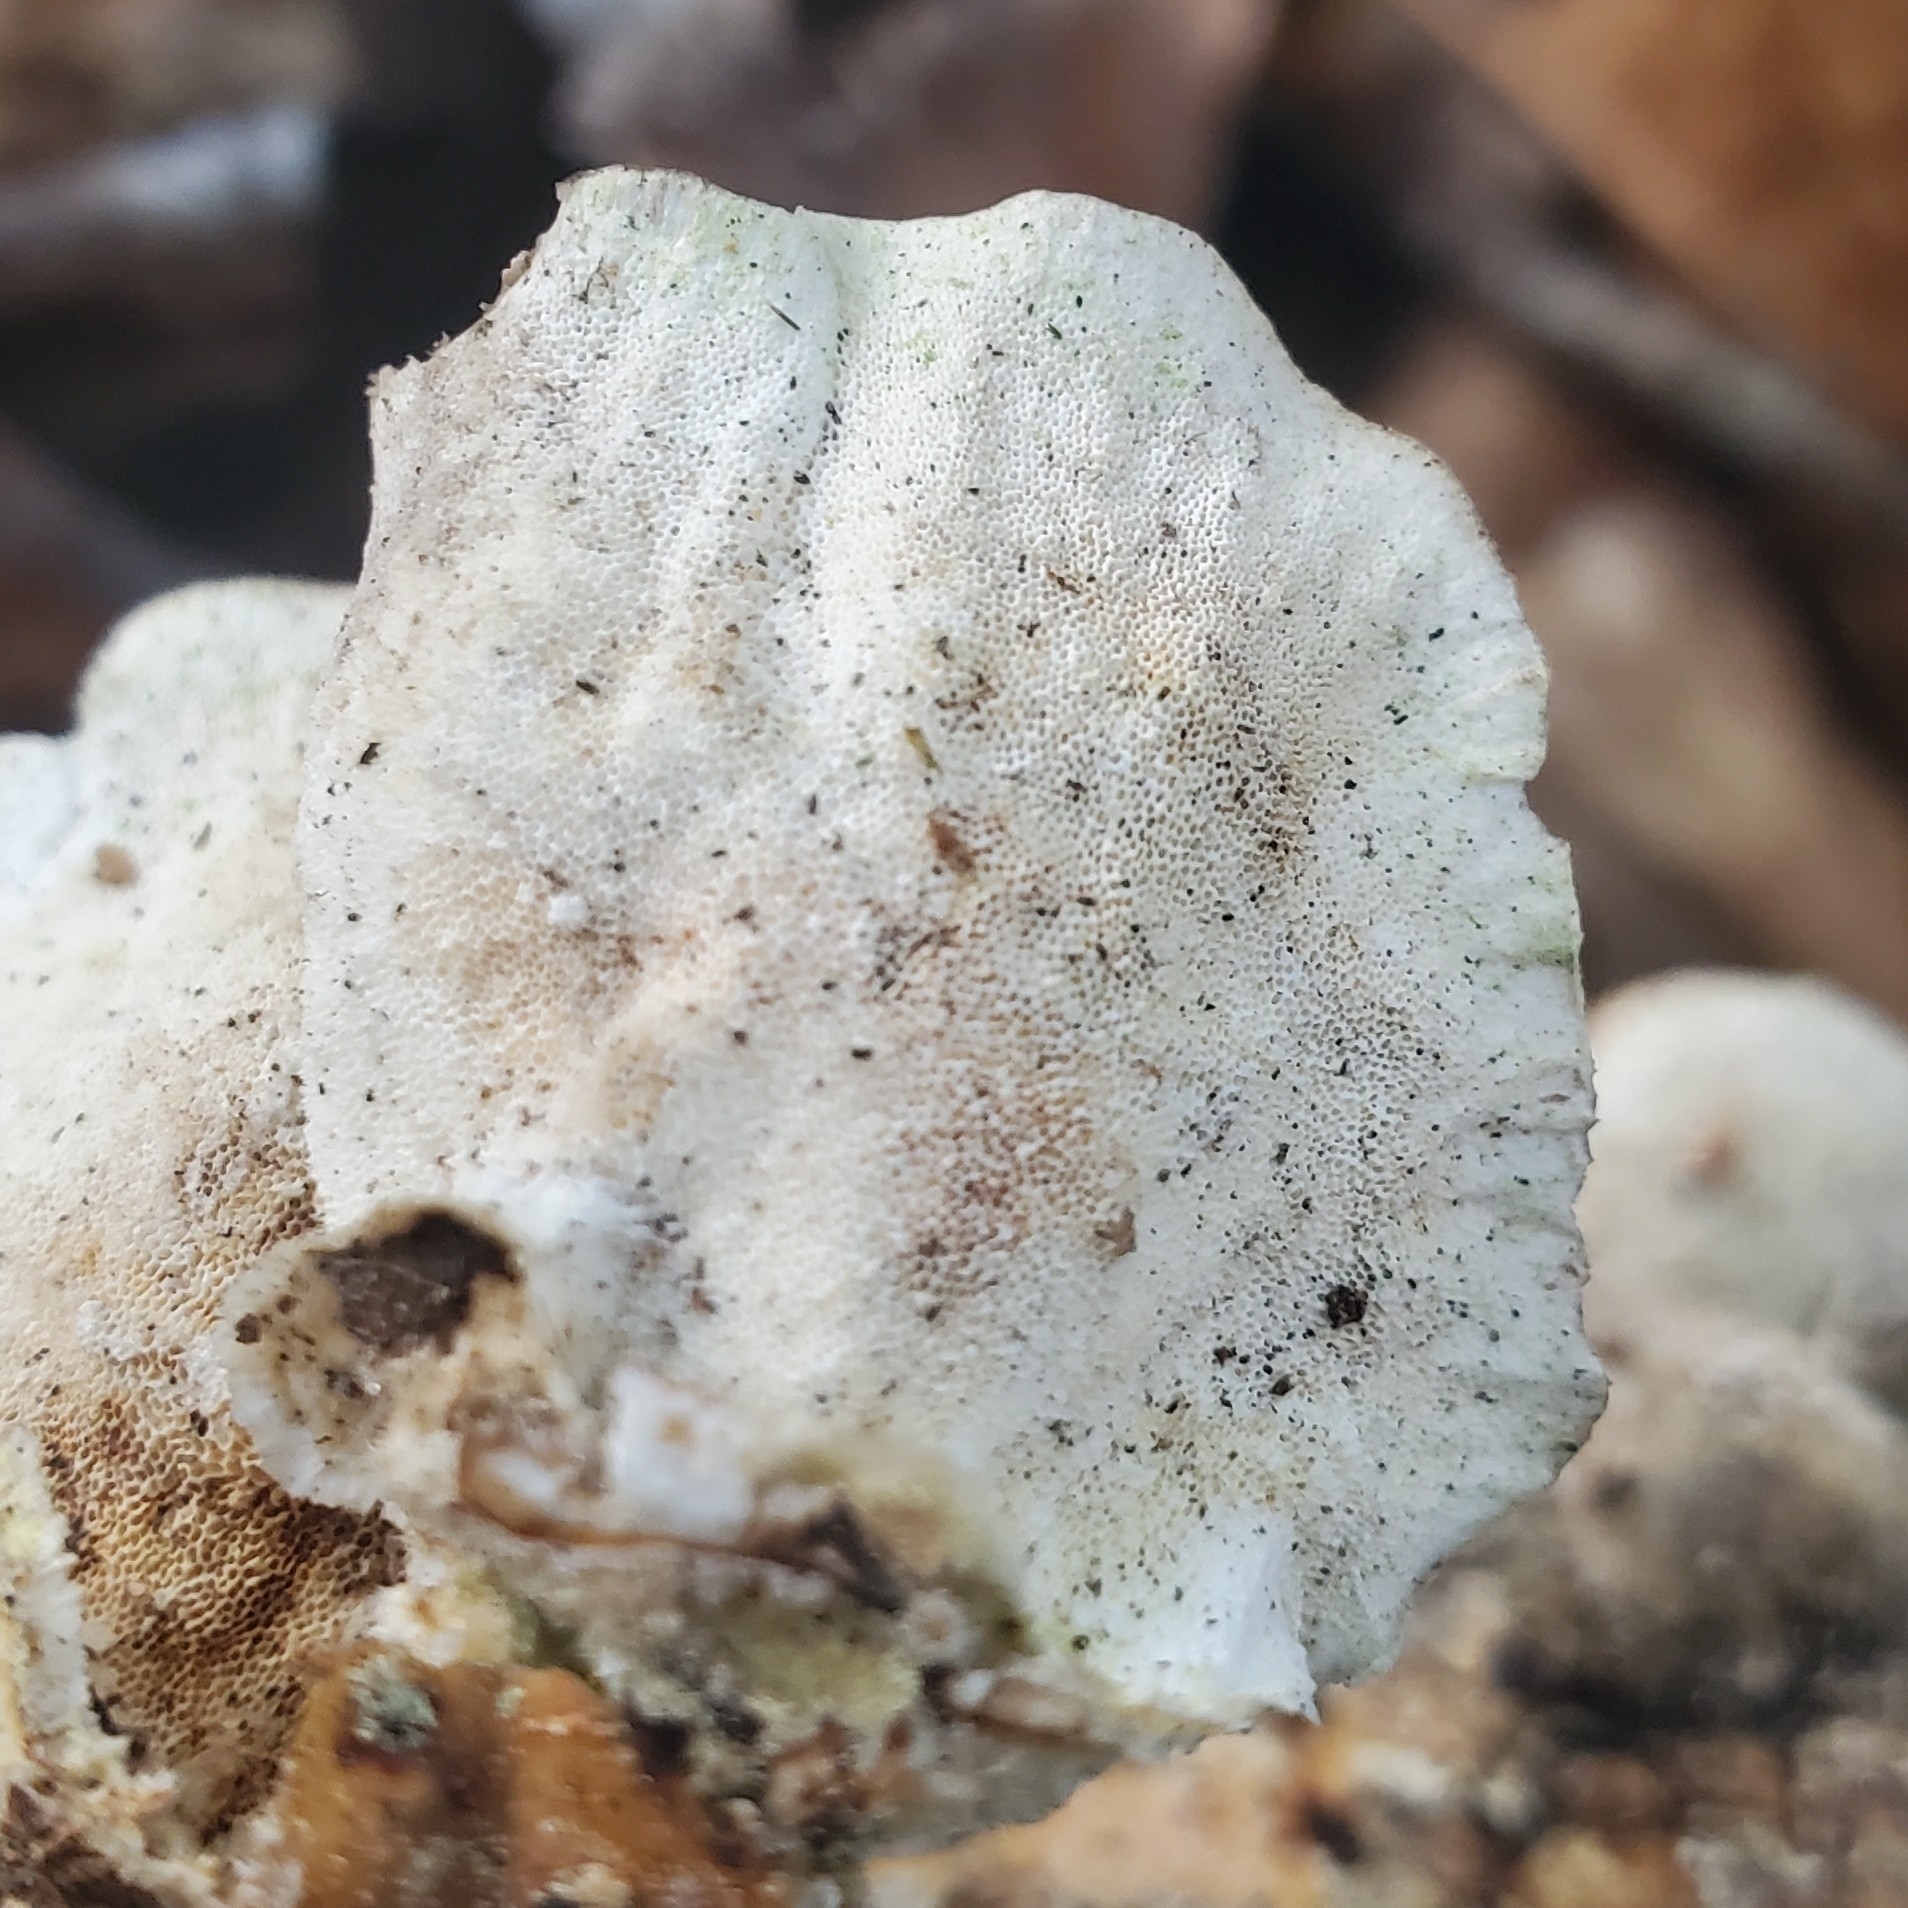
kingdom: Fungi
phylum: Basidiomycota
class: Agaricomycetes
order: Polyporales
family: Polyporaceae
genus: Trametes
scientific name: Trametes versicolor
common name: Turkeytail
